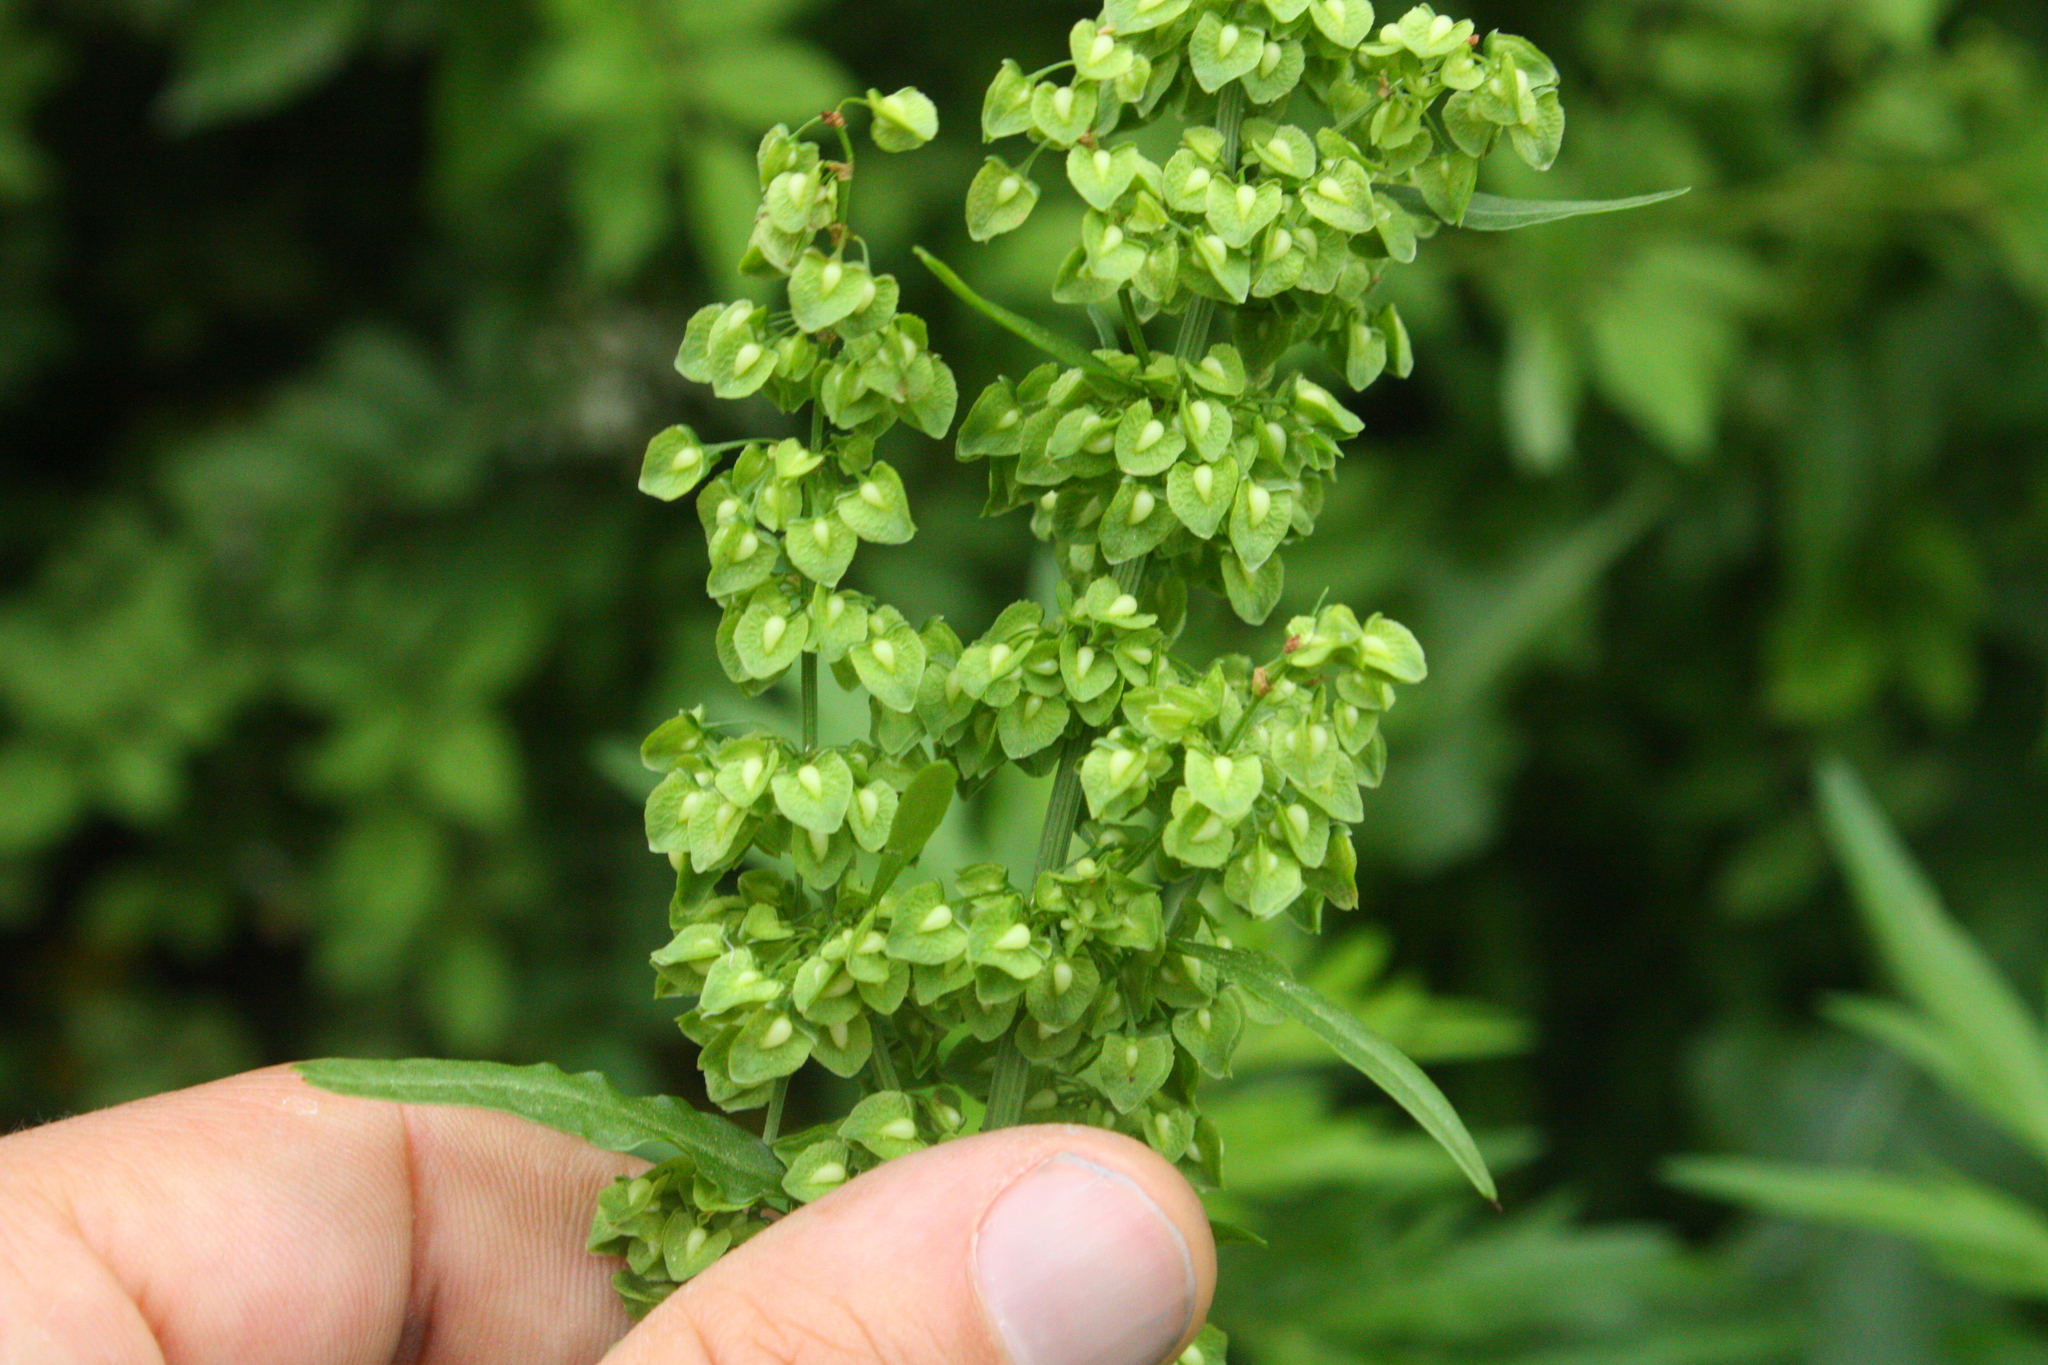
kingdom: Plantae
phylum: Tracheophyta
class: Magnoliopsida
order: Caryophyllales
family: Polygonaceae
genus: Rumex
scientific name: Rumex crispus
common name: Curled dock
